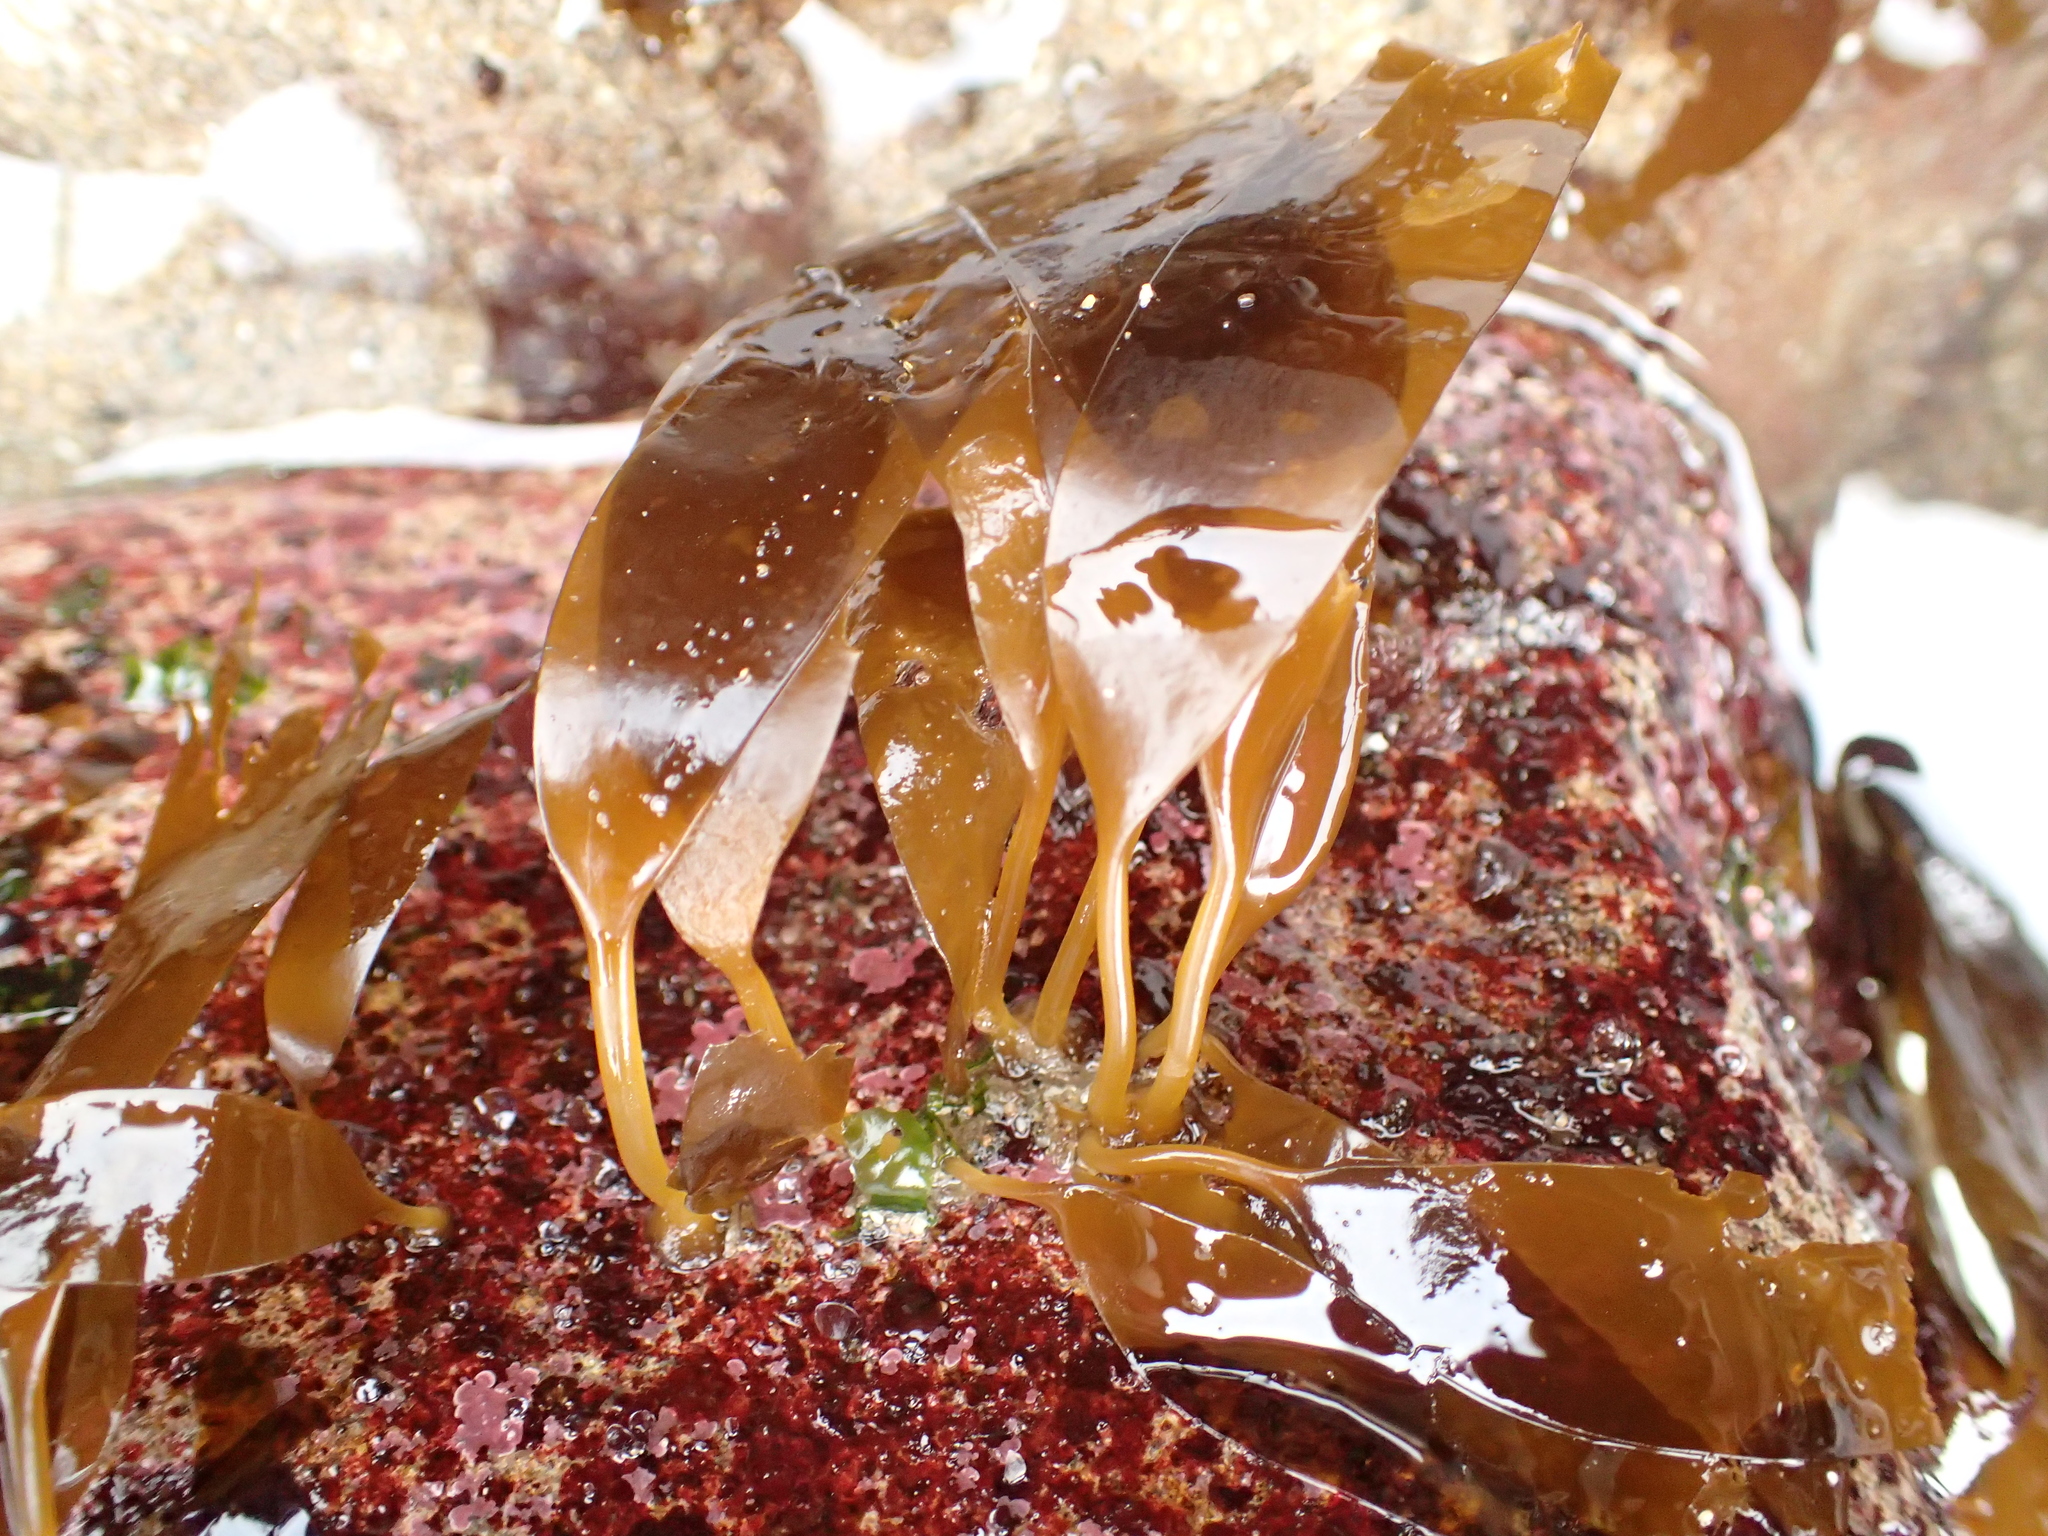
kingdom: Chromista
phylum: Ochrophyta
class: Phaeophyceae
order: Laminariales
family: Laminariaceae
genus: Laminaria
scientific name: Laminaria ephemera
